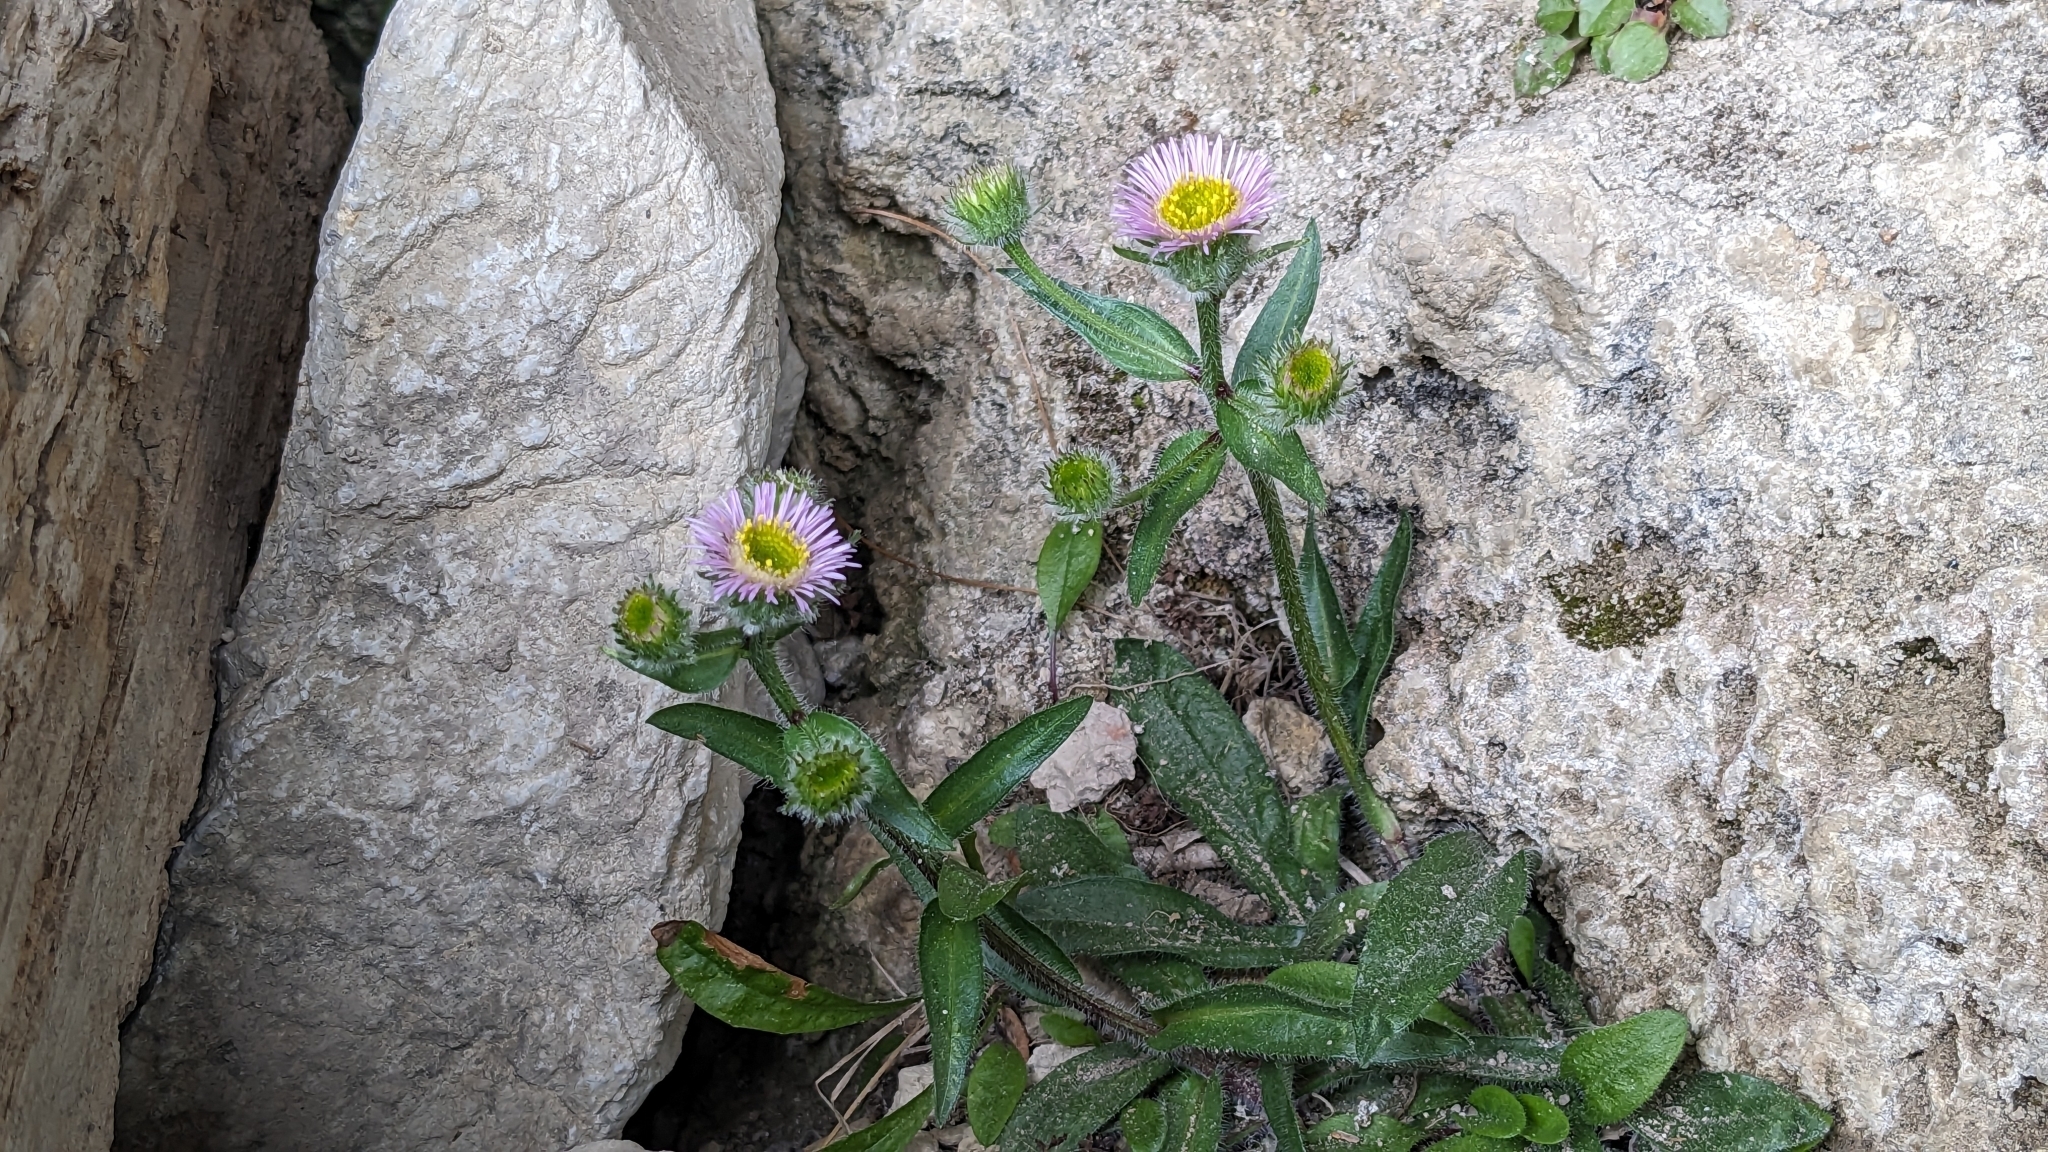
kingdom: Plantae
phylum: Tracheophyta
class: Magnoliopsida
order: Asterales
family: Asteraceae
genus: Erigeron
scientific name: Erigeron alpinus
